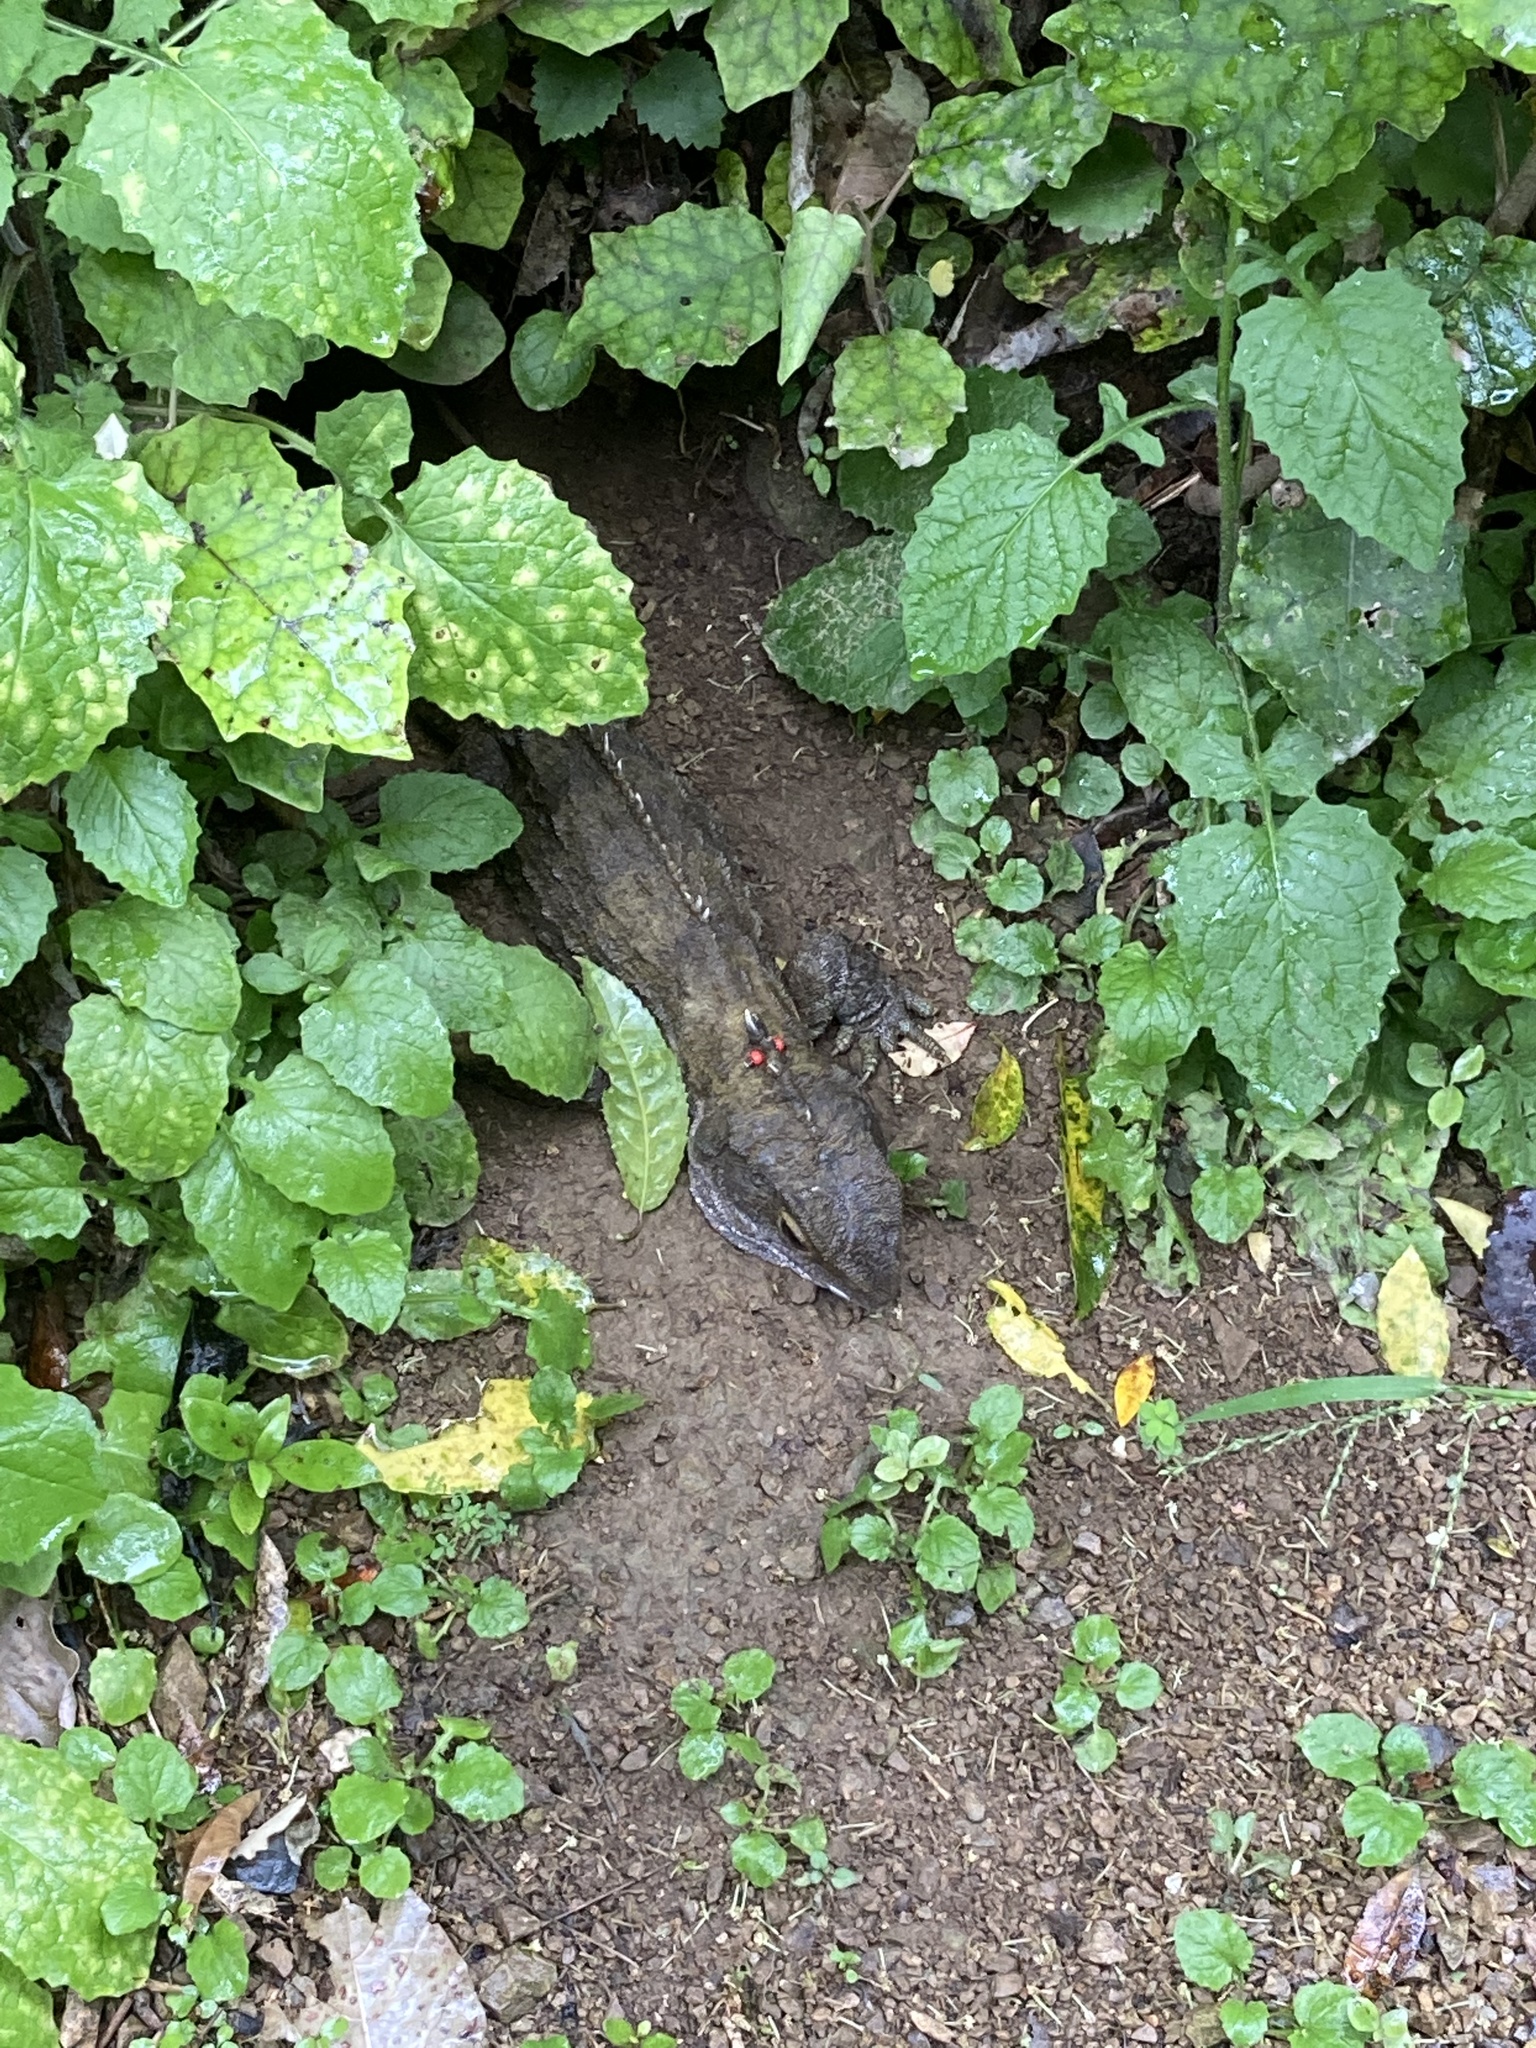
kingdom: Animalia
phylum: Chordata
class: Sphenodontia
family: Sphenodontidae
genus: Sphenodon
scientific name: Sphenodon punctatus
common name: Tuatara
